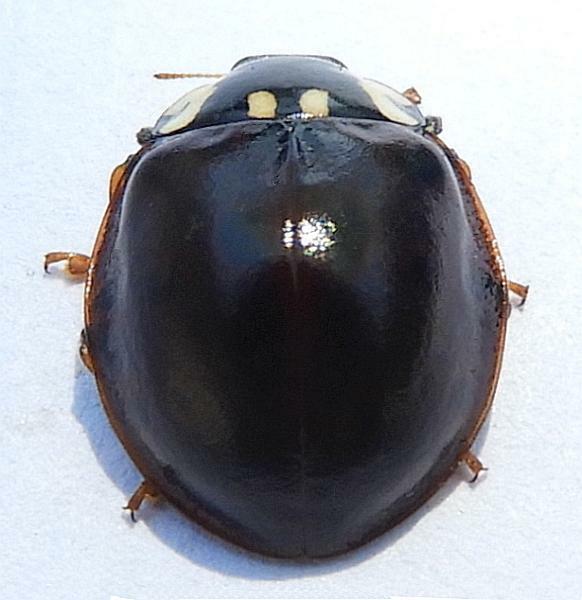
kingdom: Animalia
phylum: Arthropoda
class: Insecta
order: Coleoptera
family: Coccinellidae
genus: Anatis
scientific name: Anatis labiculata
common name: Fifteen-spotted lady beetle
